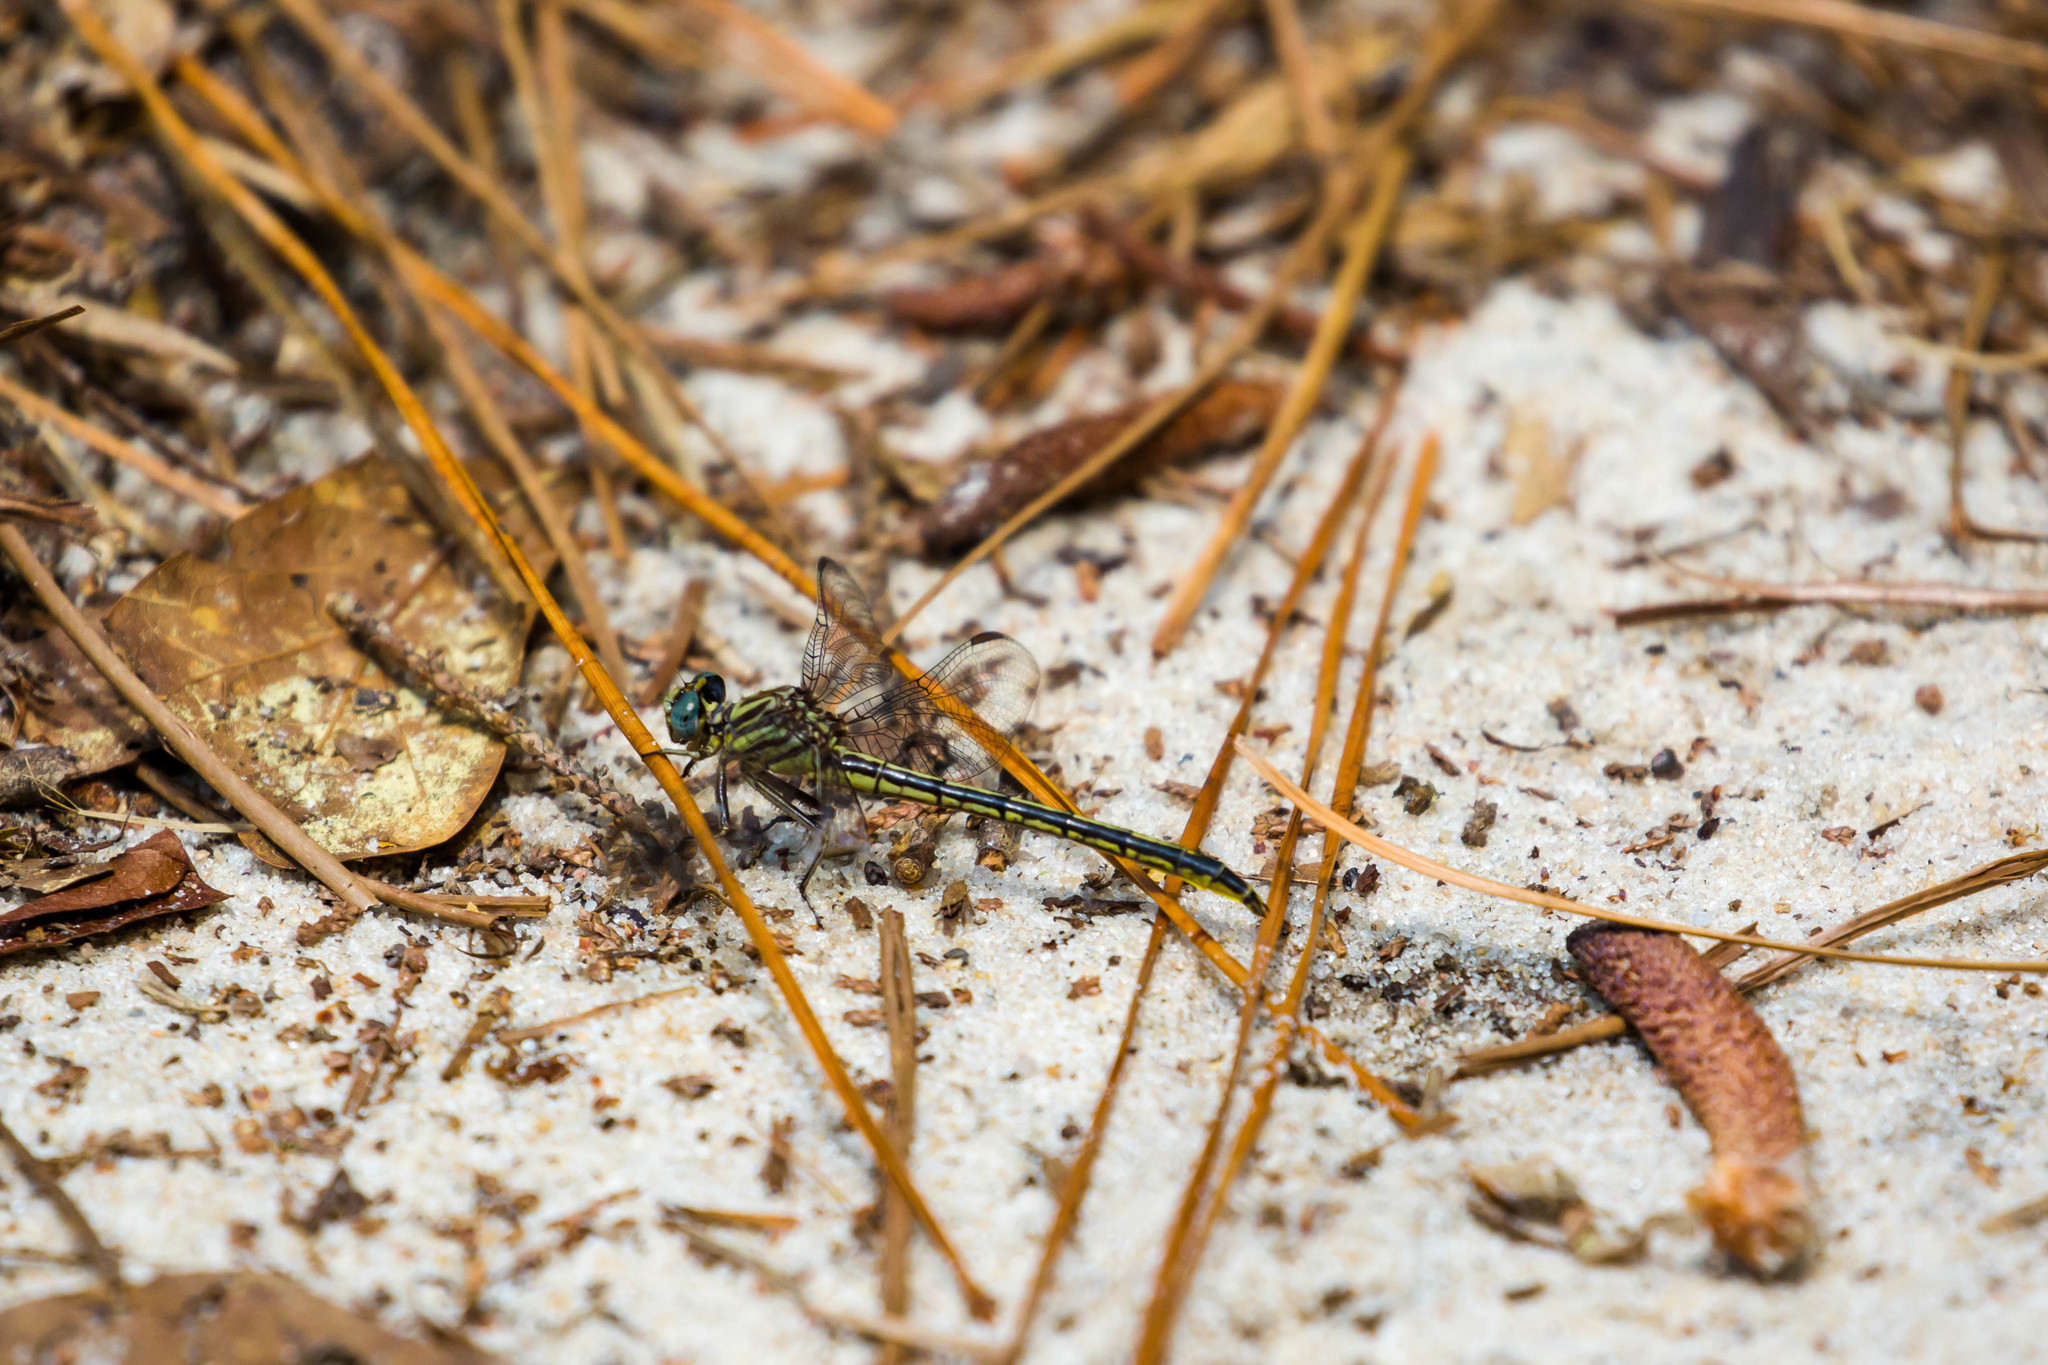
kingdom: Animalia
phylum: Arthropoda
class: Insecta
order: Odonata
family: Gomphidae
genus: Phanogomphus
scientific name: Phanogomphus hodgesi
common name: Hodges' clubtail
